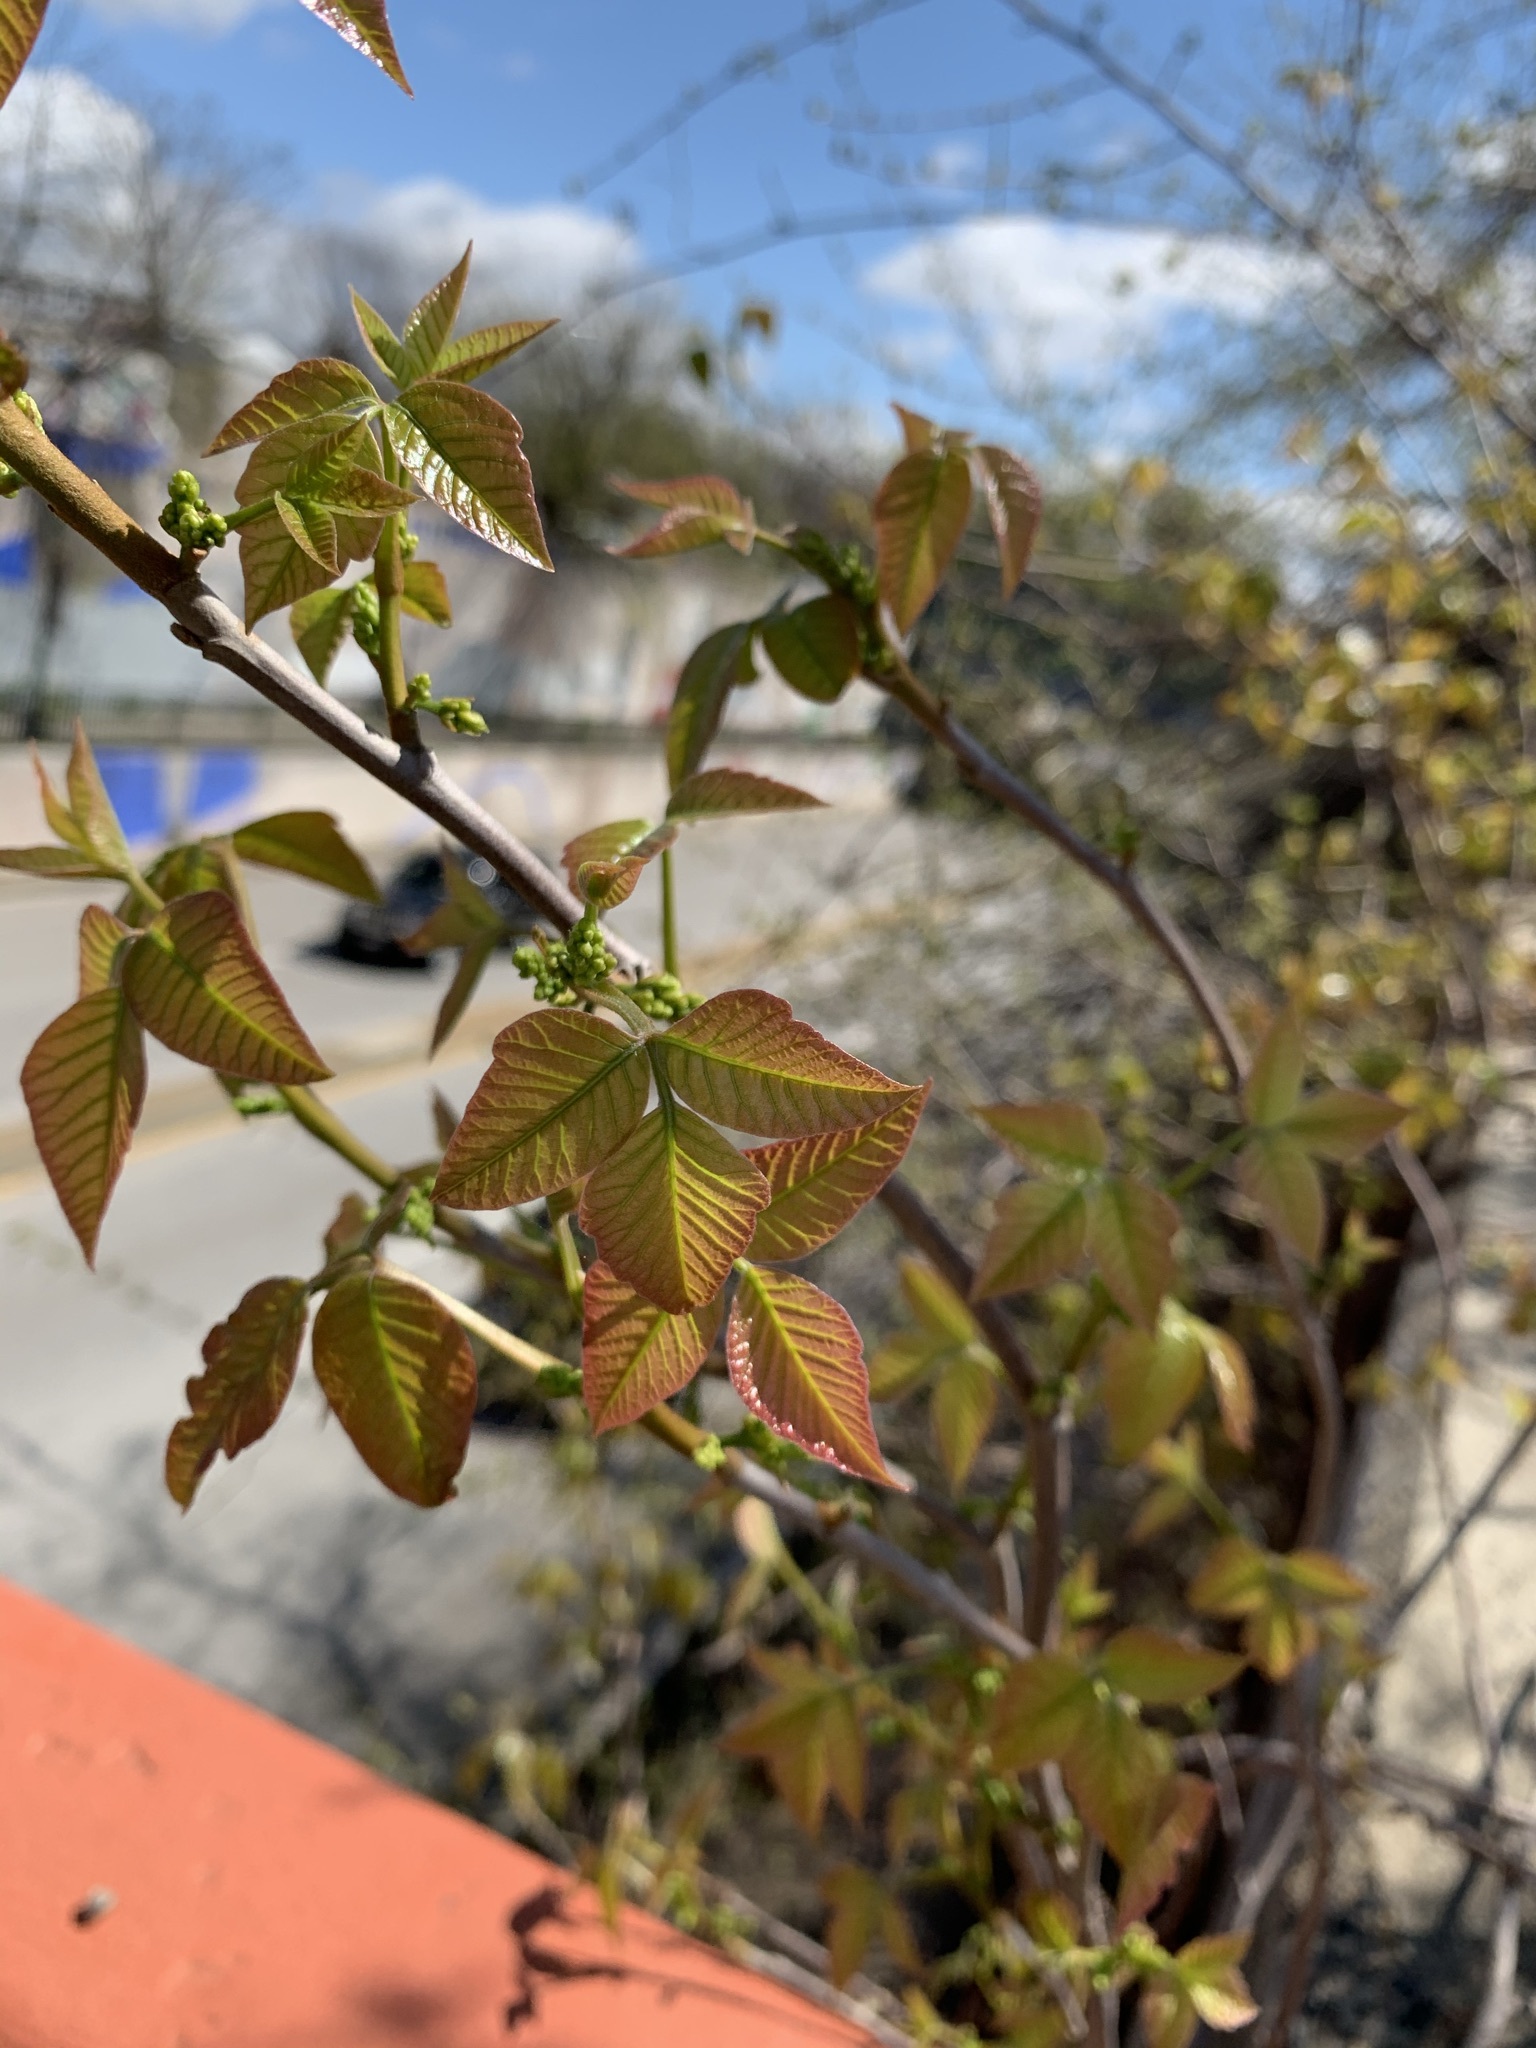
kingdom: Plantae
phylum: Tracheophyta
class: Magnoliopsida
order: Sapindales
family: Anacardiaceae
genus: Toxicodendron
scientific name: Toxicodendron radicans
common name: Poison ivy
